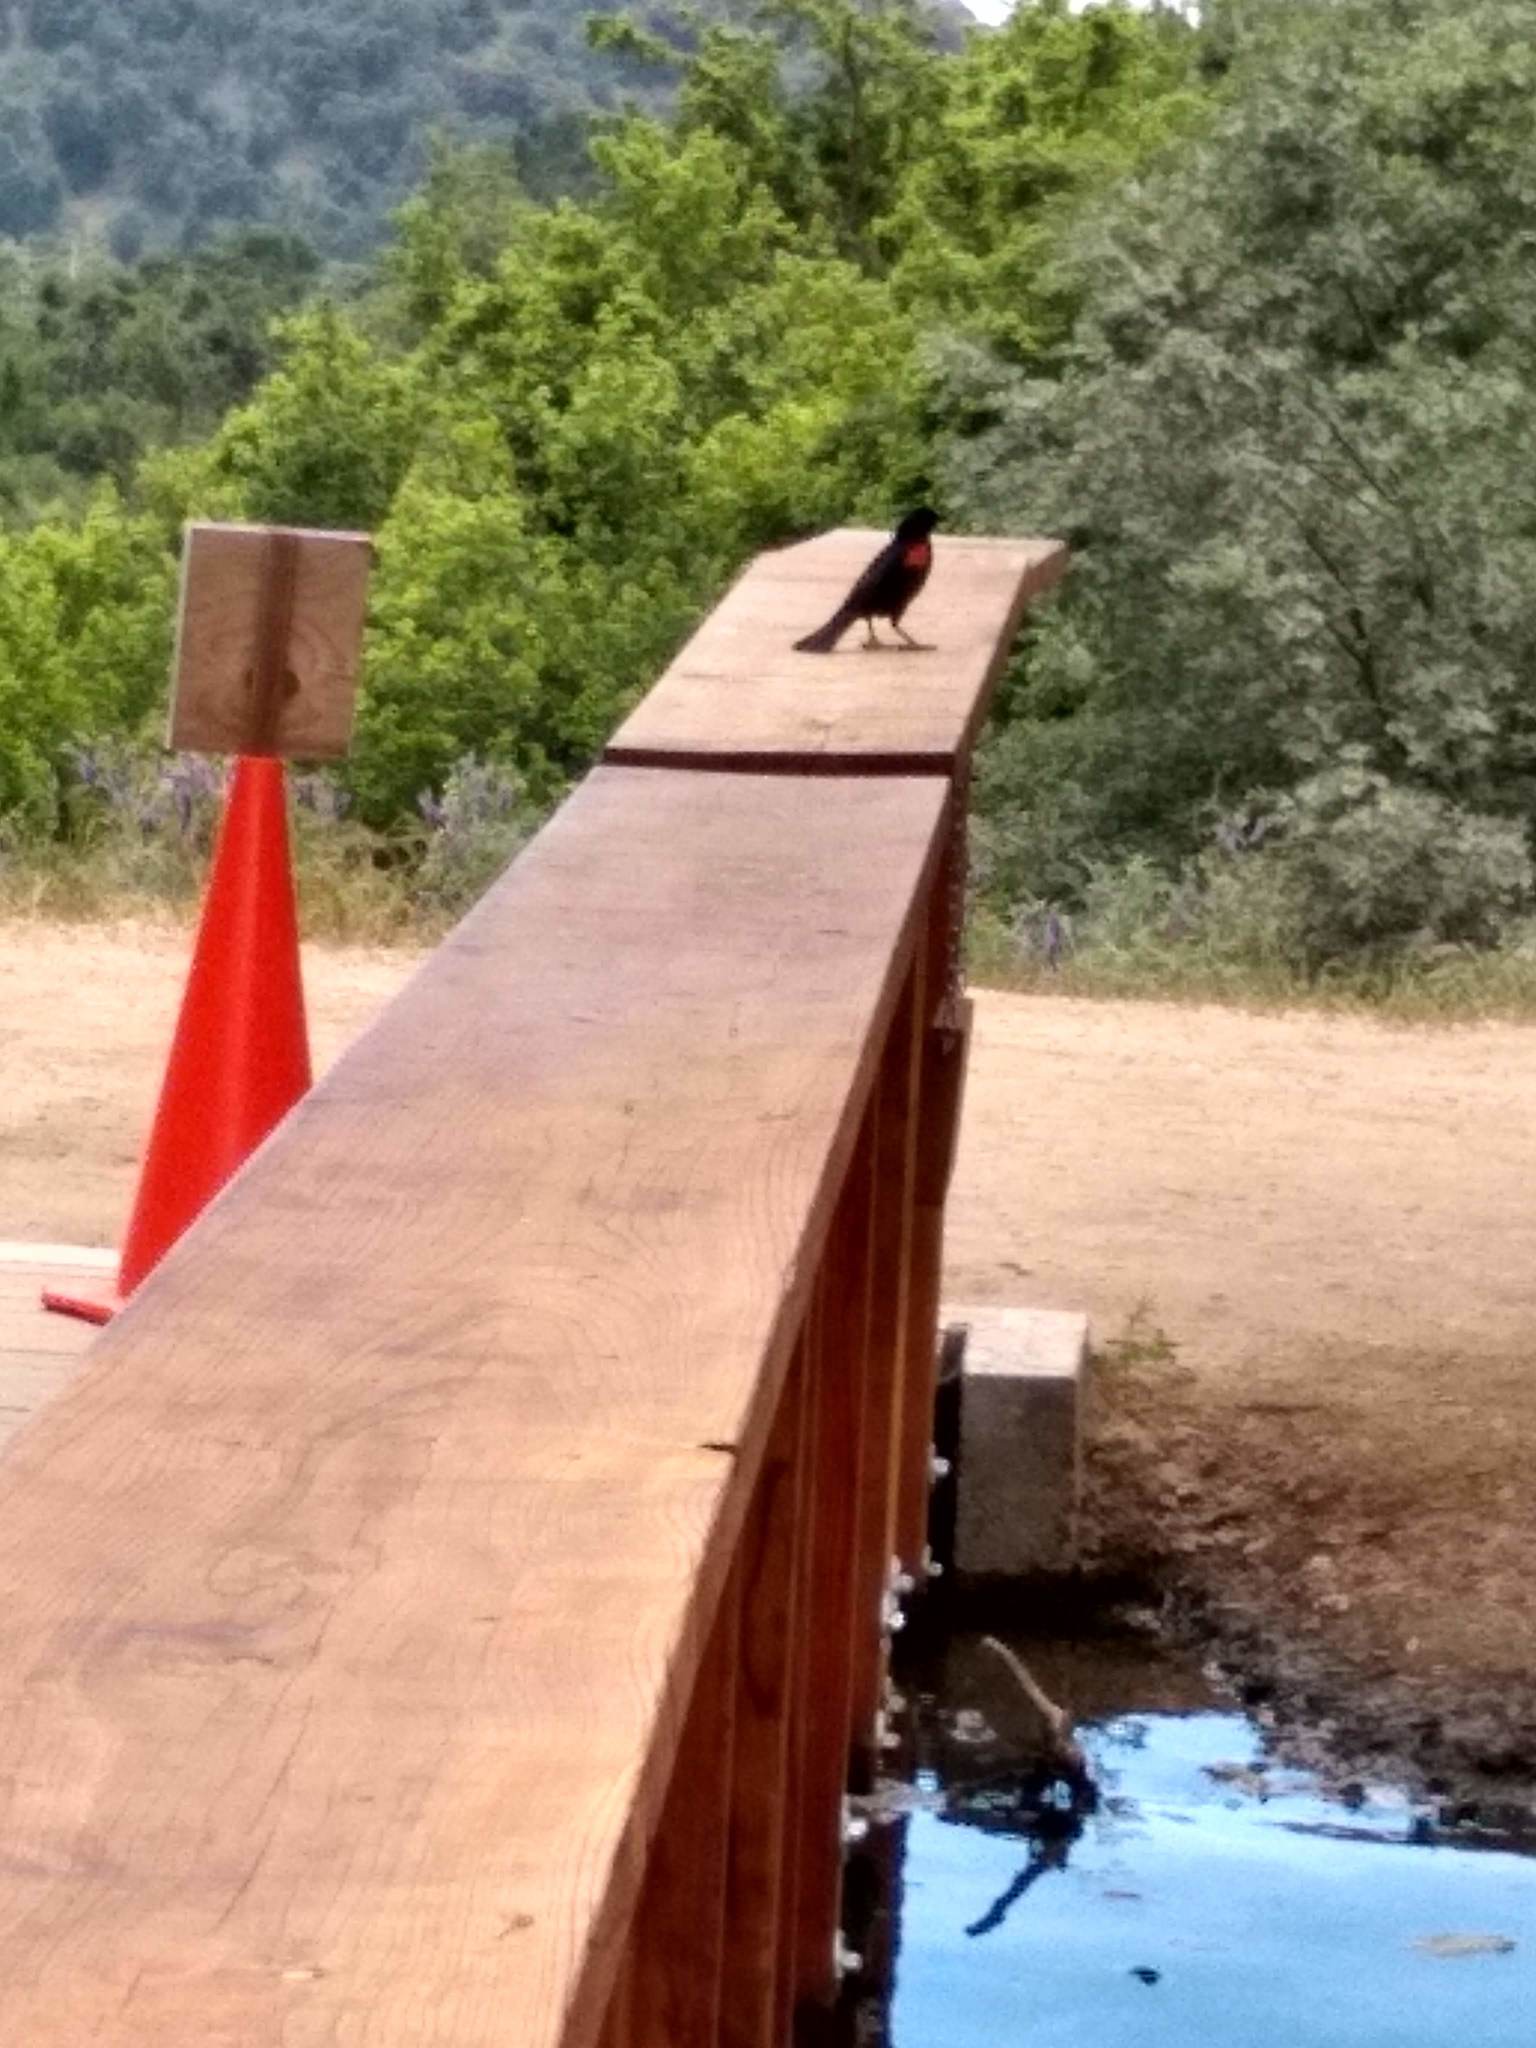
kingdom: Animalia
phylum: Chordata
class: Aves
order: Passeriformes
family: Icteridae
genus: Agelaius
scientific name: Agelaius phoeniceus
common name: Red-winged blackbird
